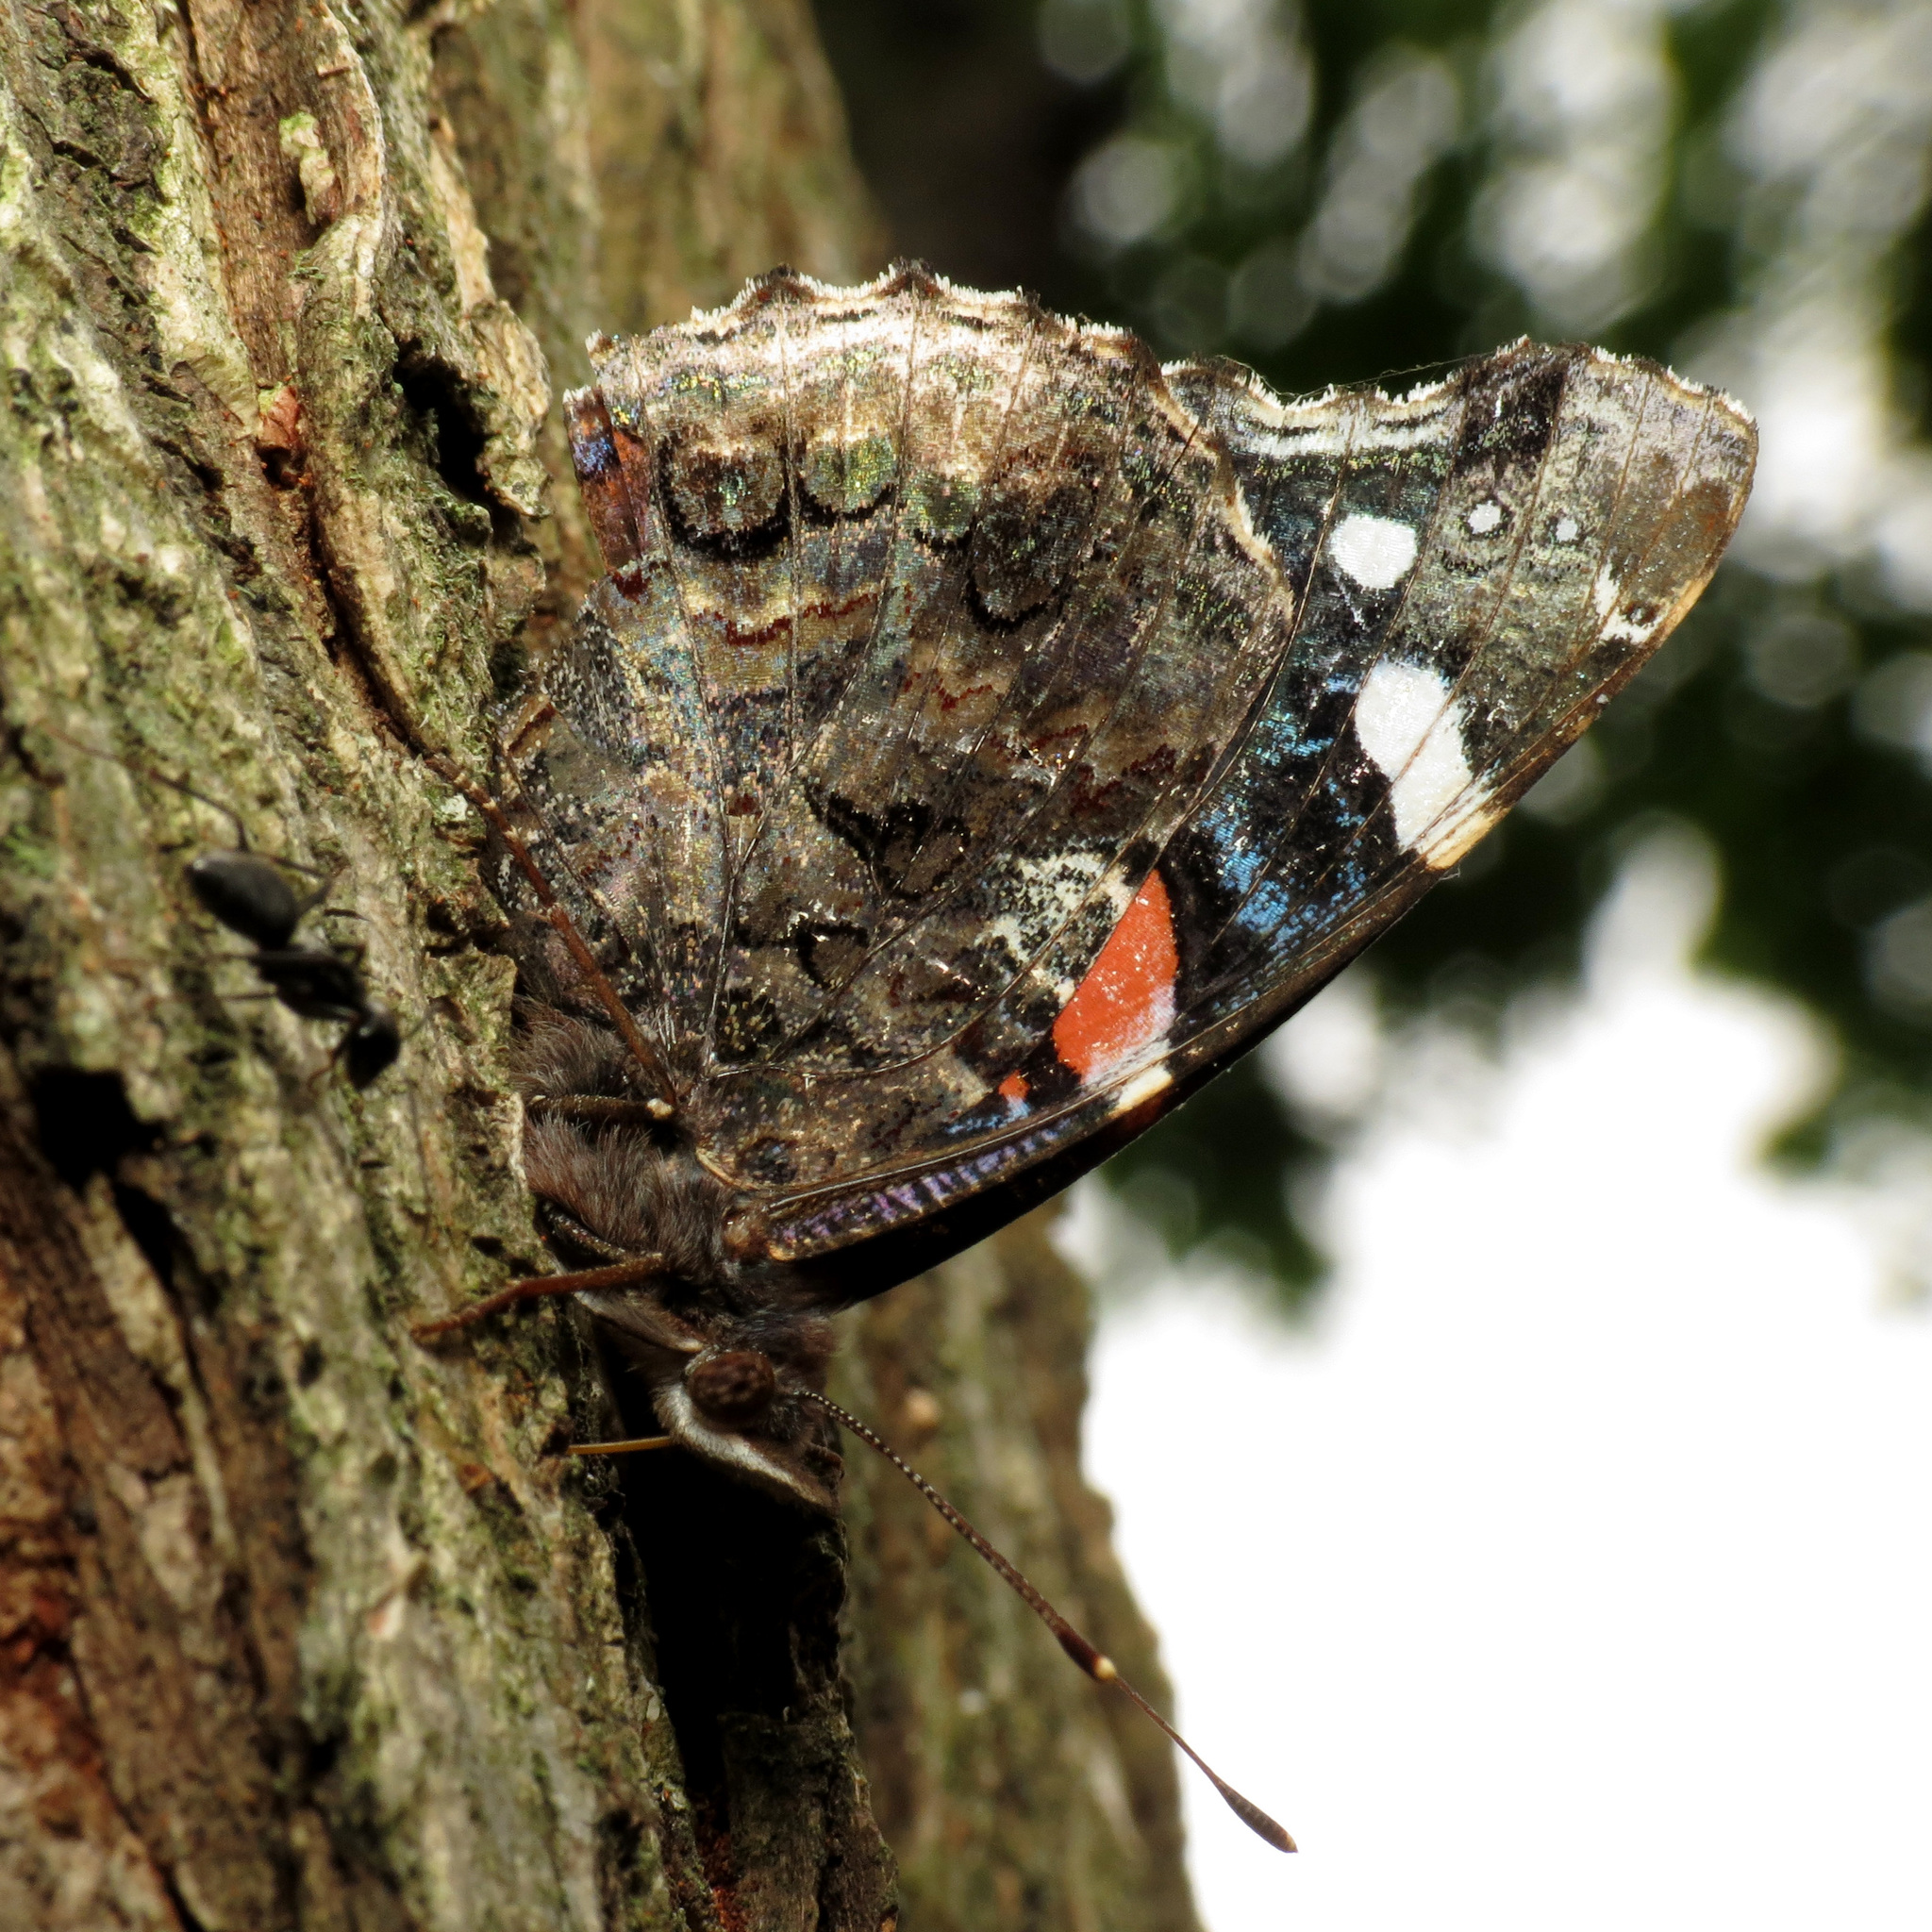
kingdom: Animalia
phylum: Arthropoda
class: Insecta
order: Lepidoptera
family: Nymphalidae
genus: Vanessa
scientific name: Vanessa atalanta
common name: Red admiral
